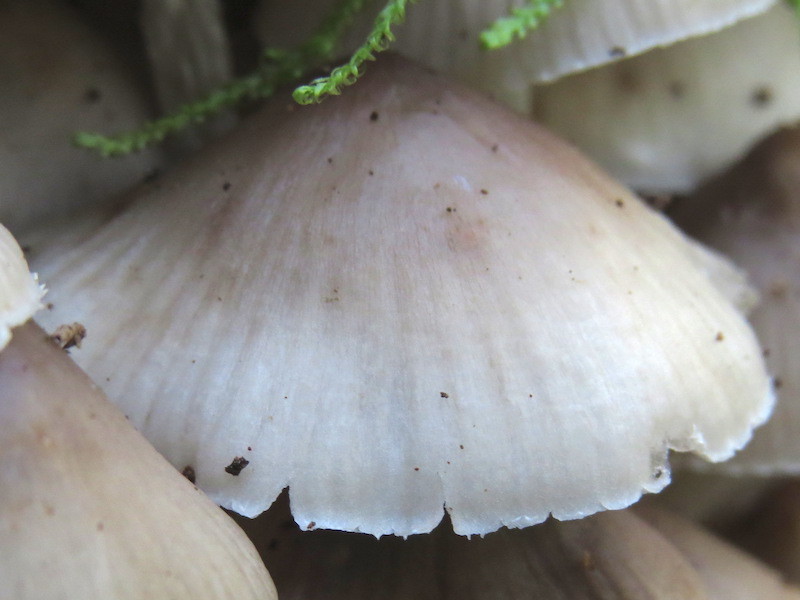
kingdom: Fungi
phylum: Basidiomycota
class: Agaricomycetes
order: Agaricales
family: Mycenaceae
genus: Mycena
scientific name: Mycena inclinata
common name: Clustered bonnet
